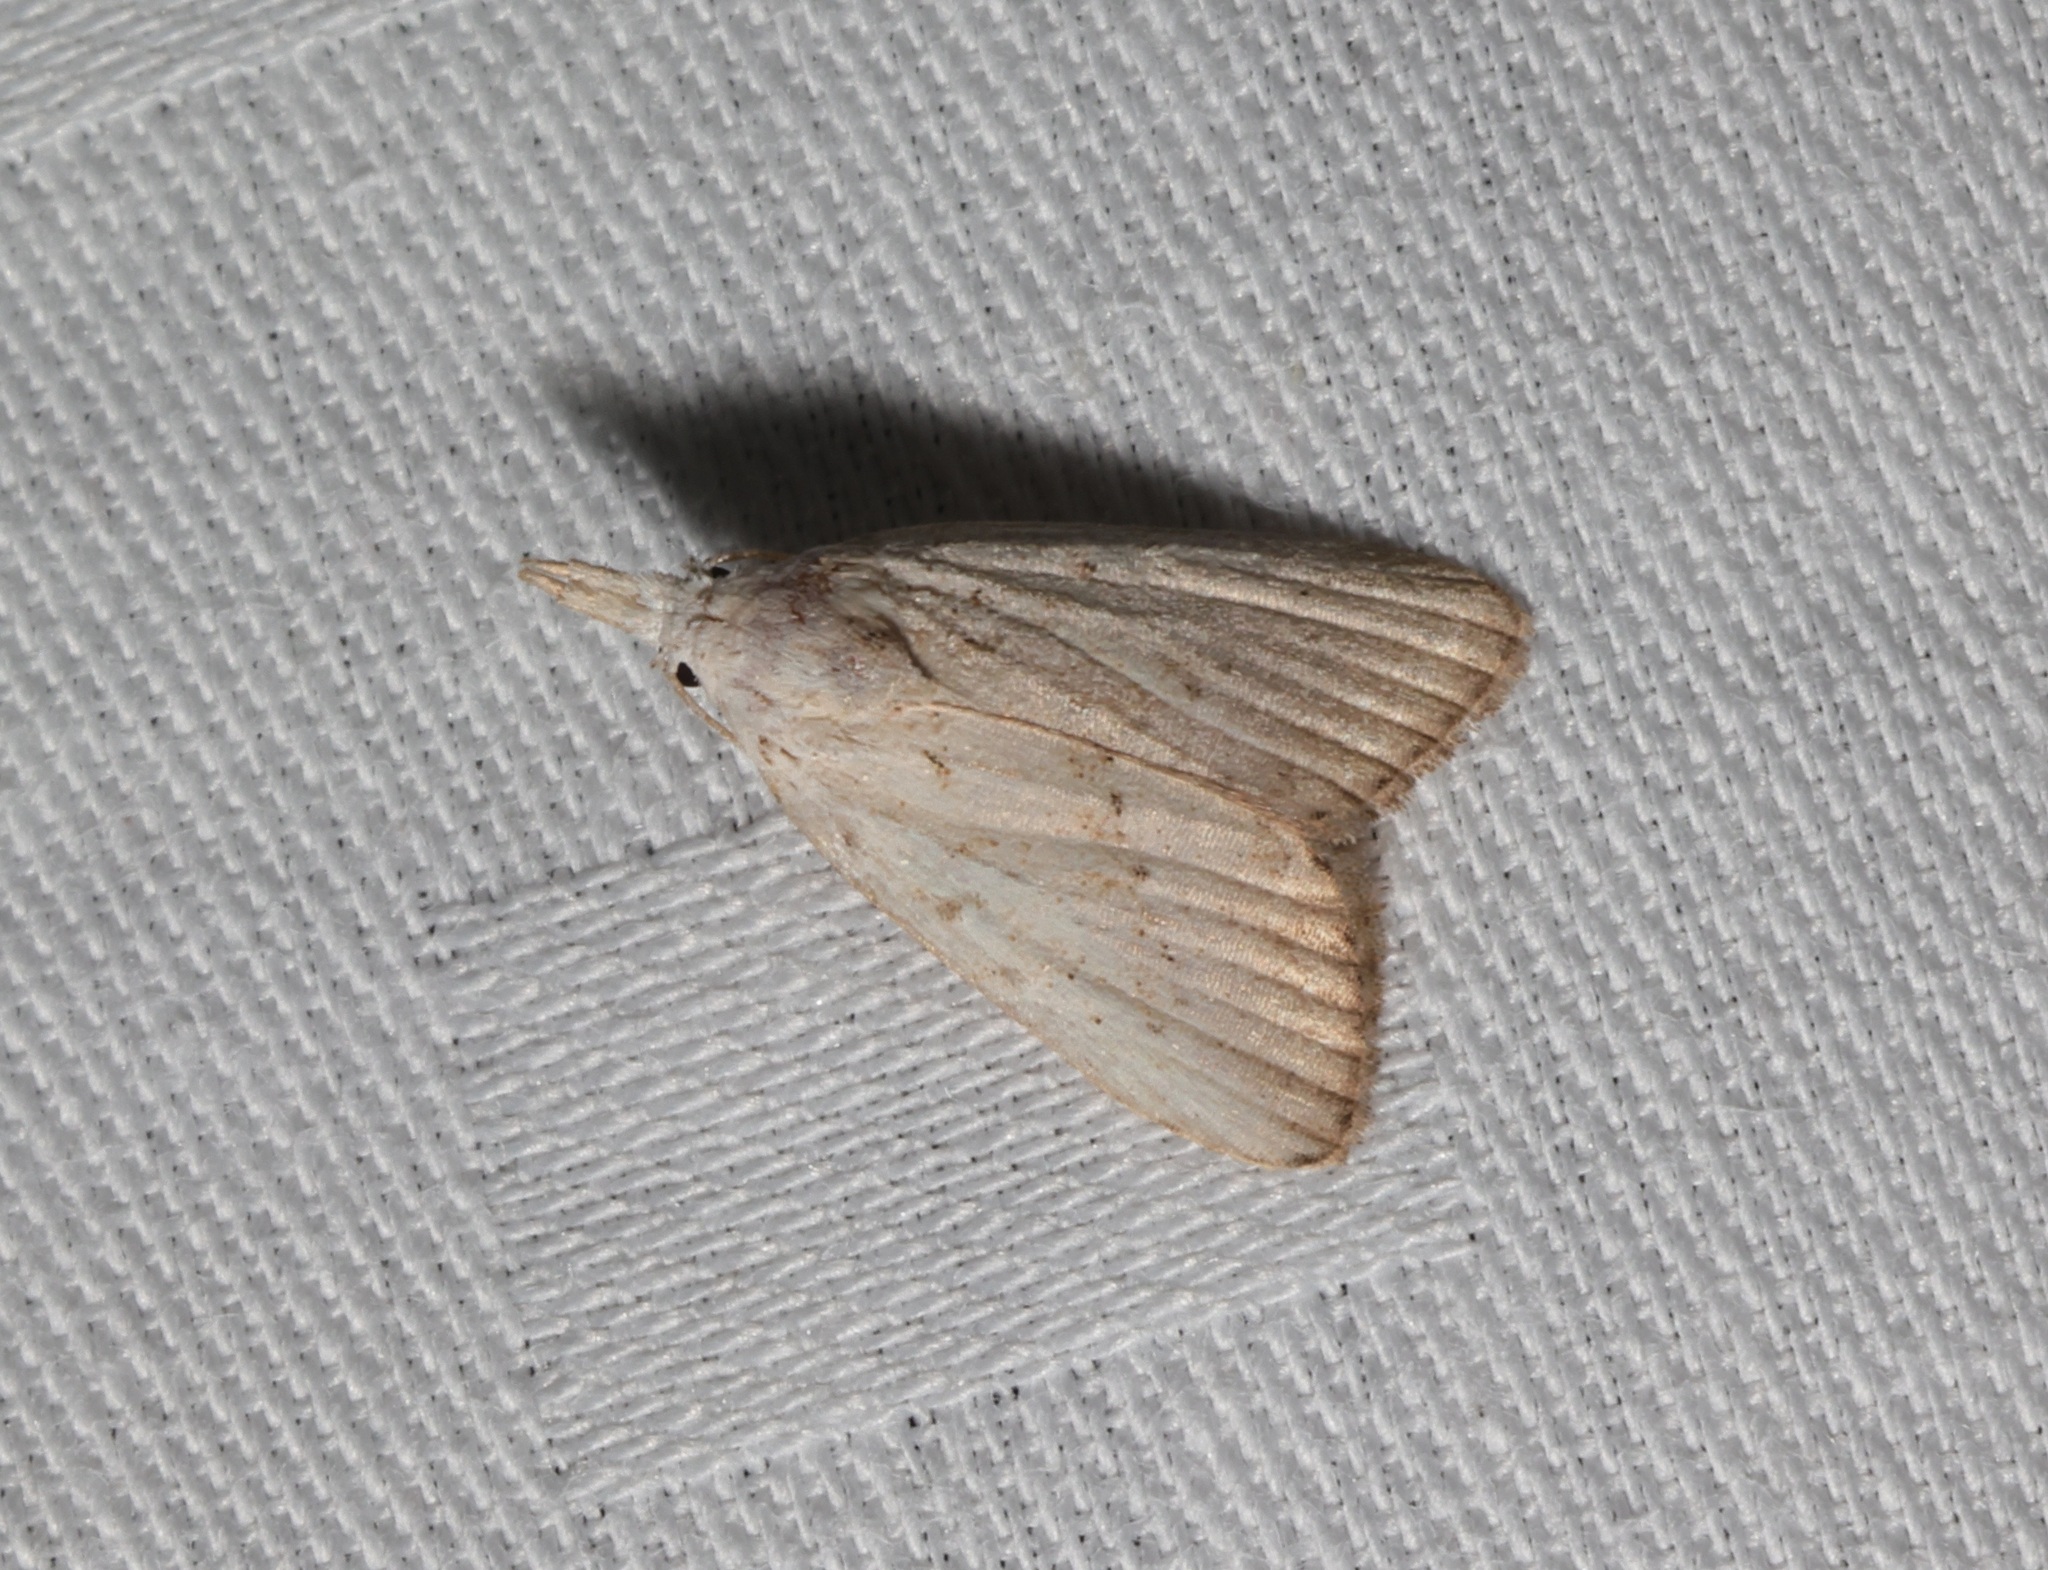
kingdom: Animalia
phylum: Arthropoda
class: Insecta
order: Lepidoptera
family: Nolidae
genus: Meganola
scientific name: Meganola brunellus
